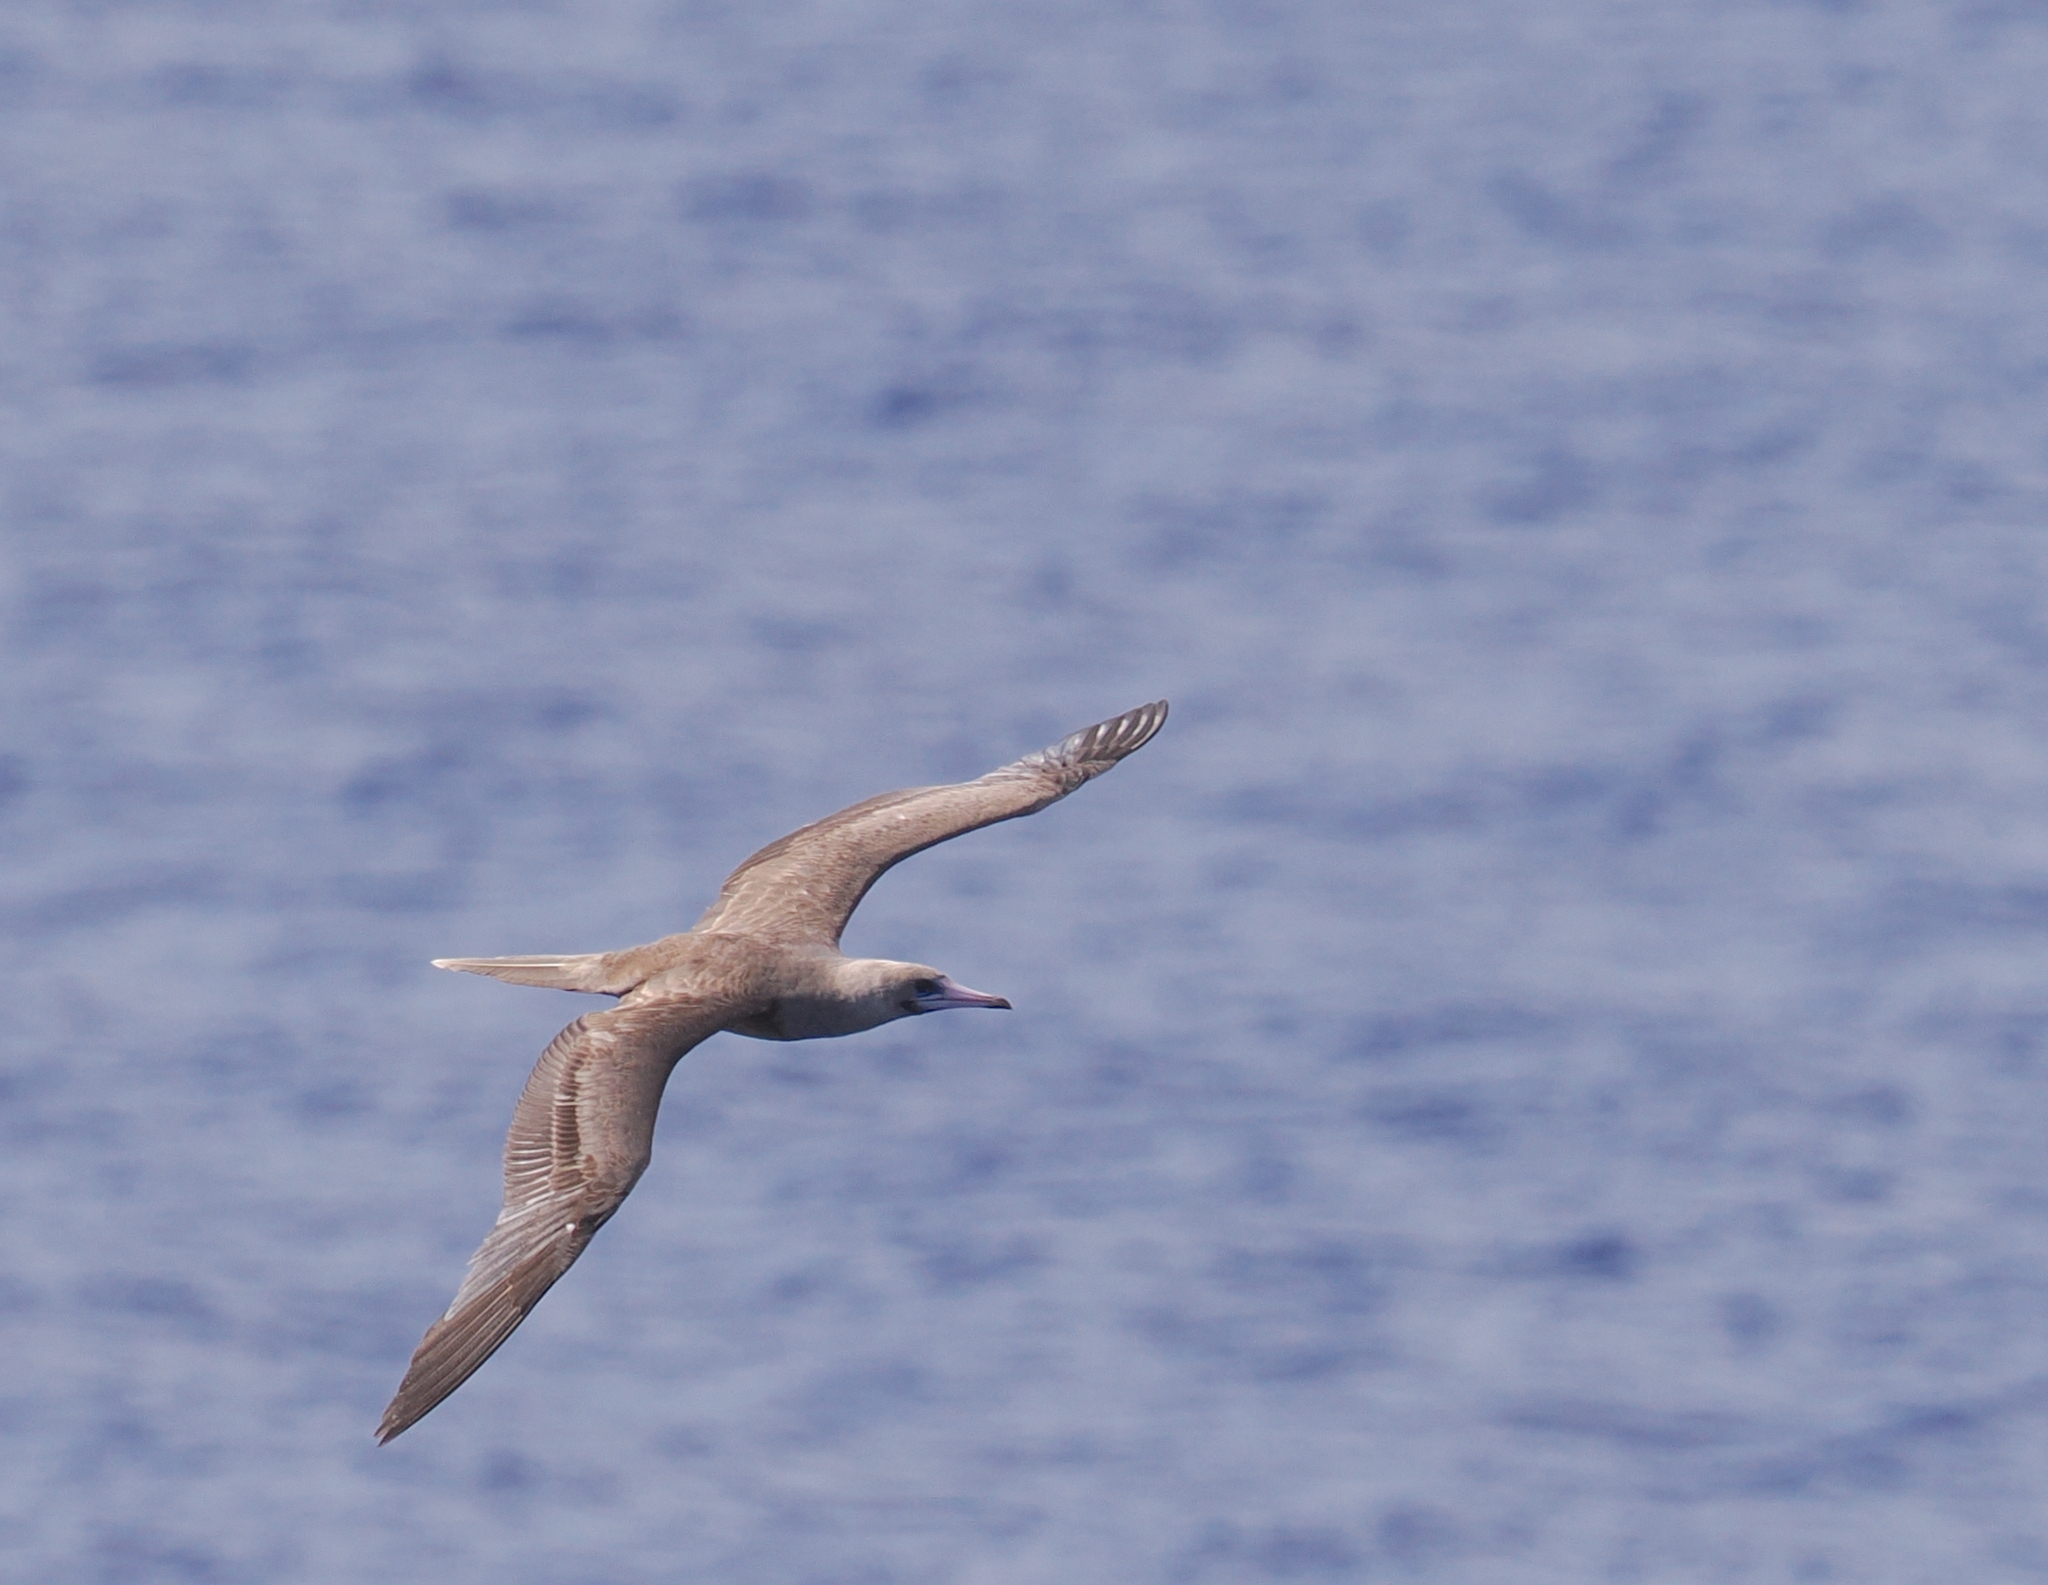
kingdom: Animalia
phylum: Chordata
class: Aves
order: Suliformes
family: Sulidae
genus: Sula
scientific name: Sula sula
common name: Red-footed booby
